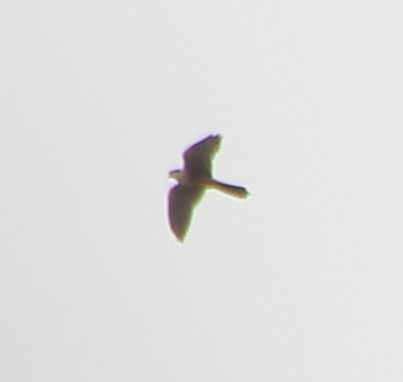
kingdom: Animalia
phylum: Chordata
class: Aves
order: Falconiformes
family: Falconidae
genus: Falco
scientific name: Falco femoralis
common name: Aplomado falcon
